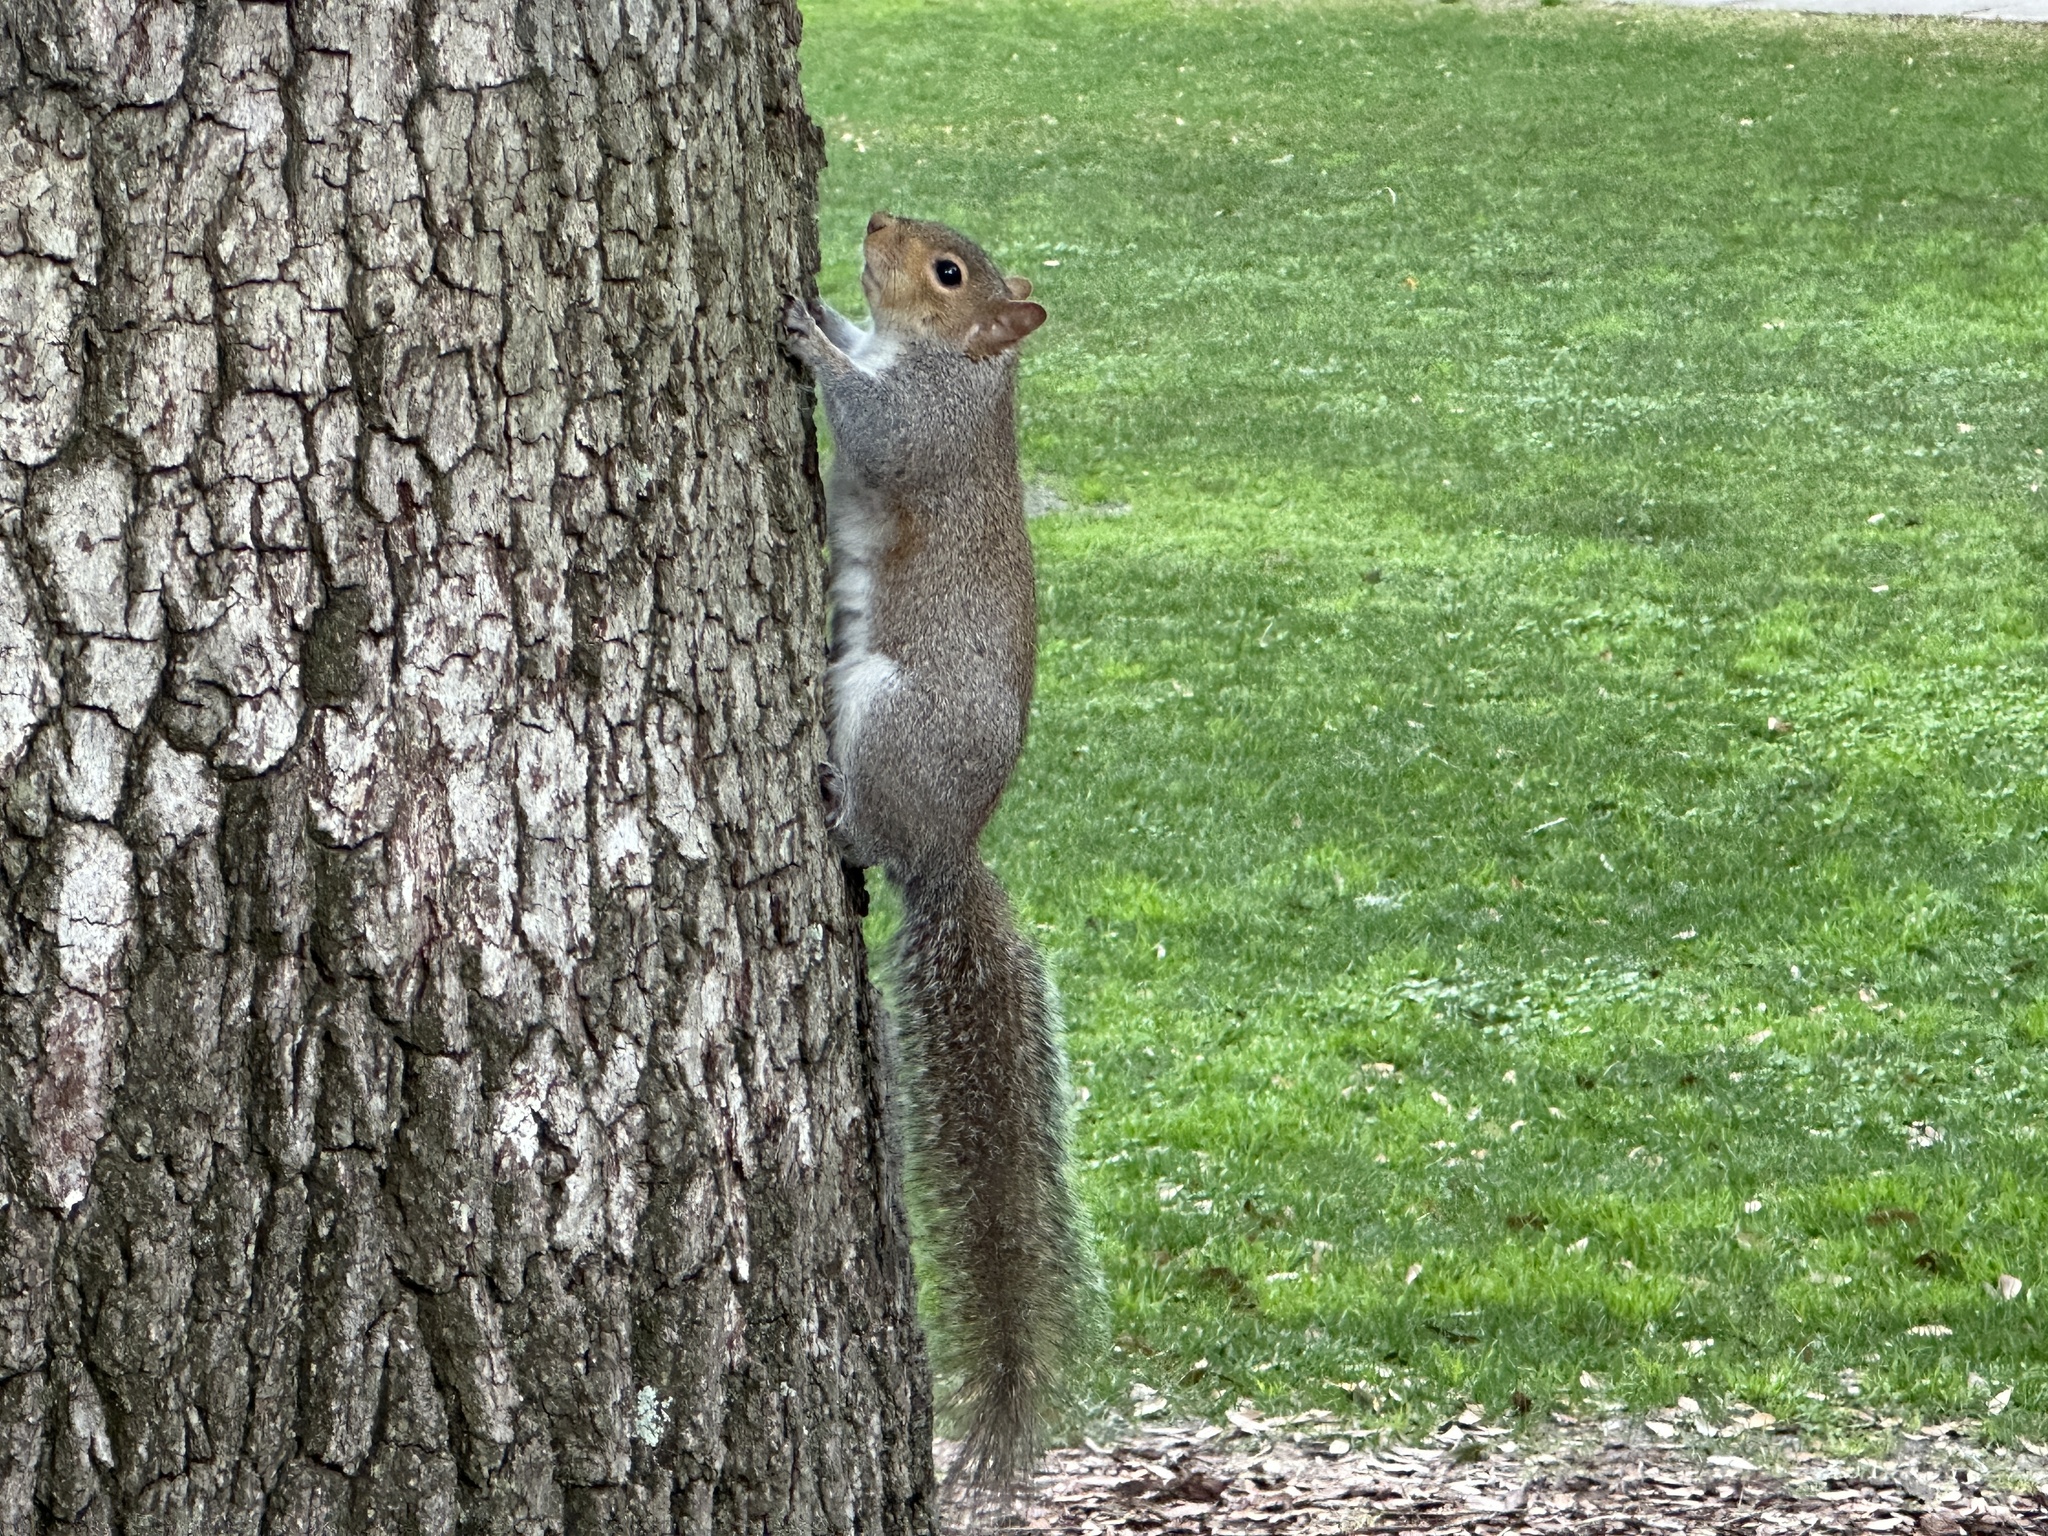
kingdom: Animalia
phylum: Chordata
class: Mammalia
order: Rodentia
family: Sciuridae
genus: Sciurus
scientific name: Sciurus carolinensis
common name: Eastern gray squirrel
